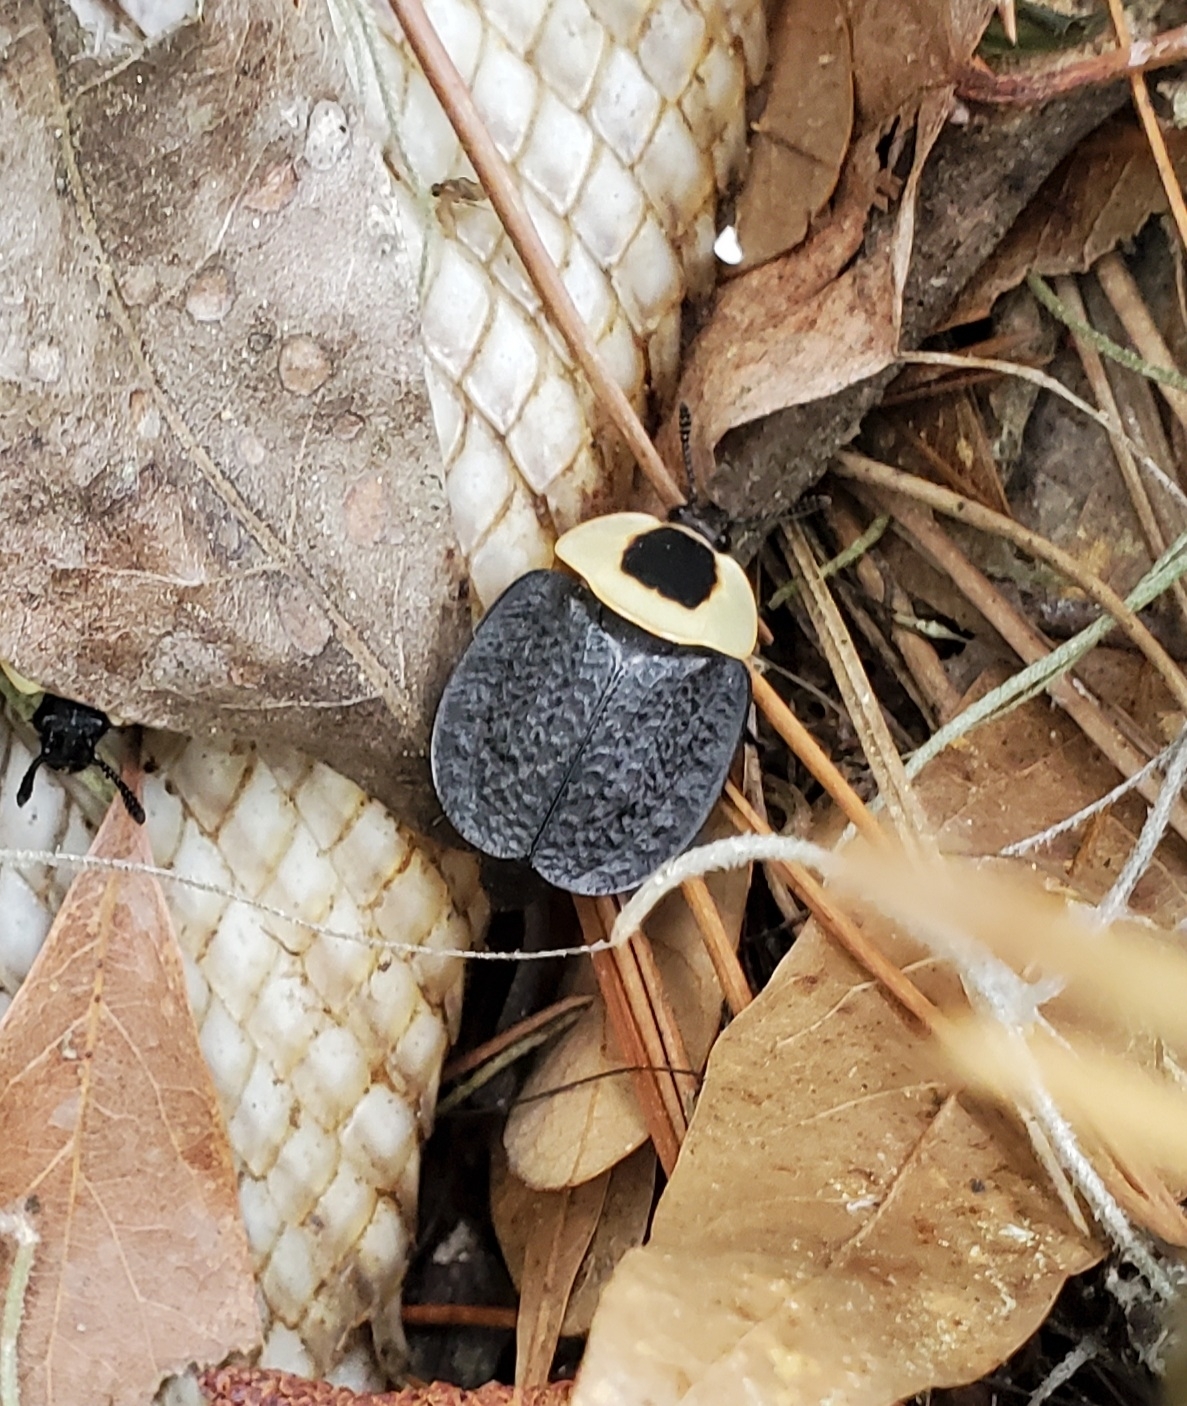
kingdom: Animalia
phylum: Arthropoda
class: Insecta
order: Coleoptera
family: Staphylinidae
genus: Necrophila
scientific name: Necrophila americana
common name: American carrion beetle
